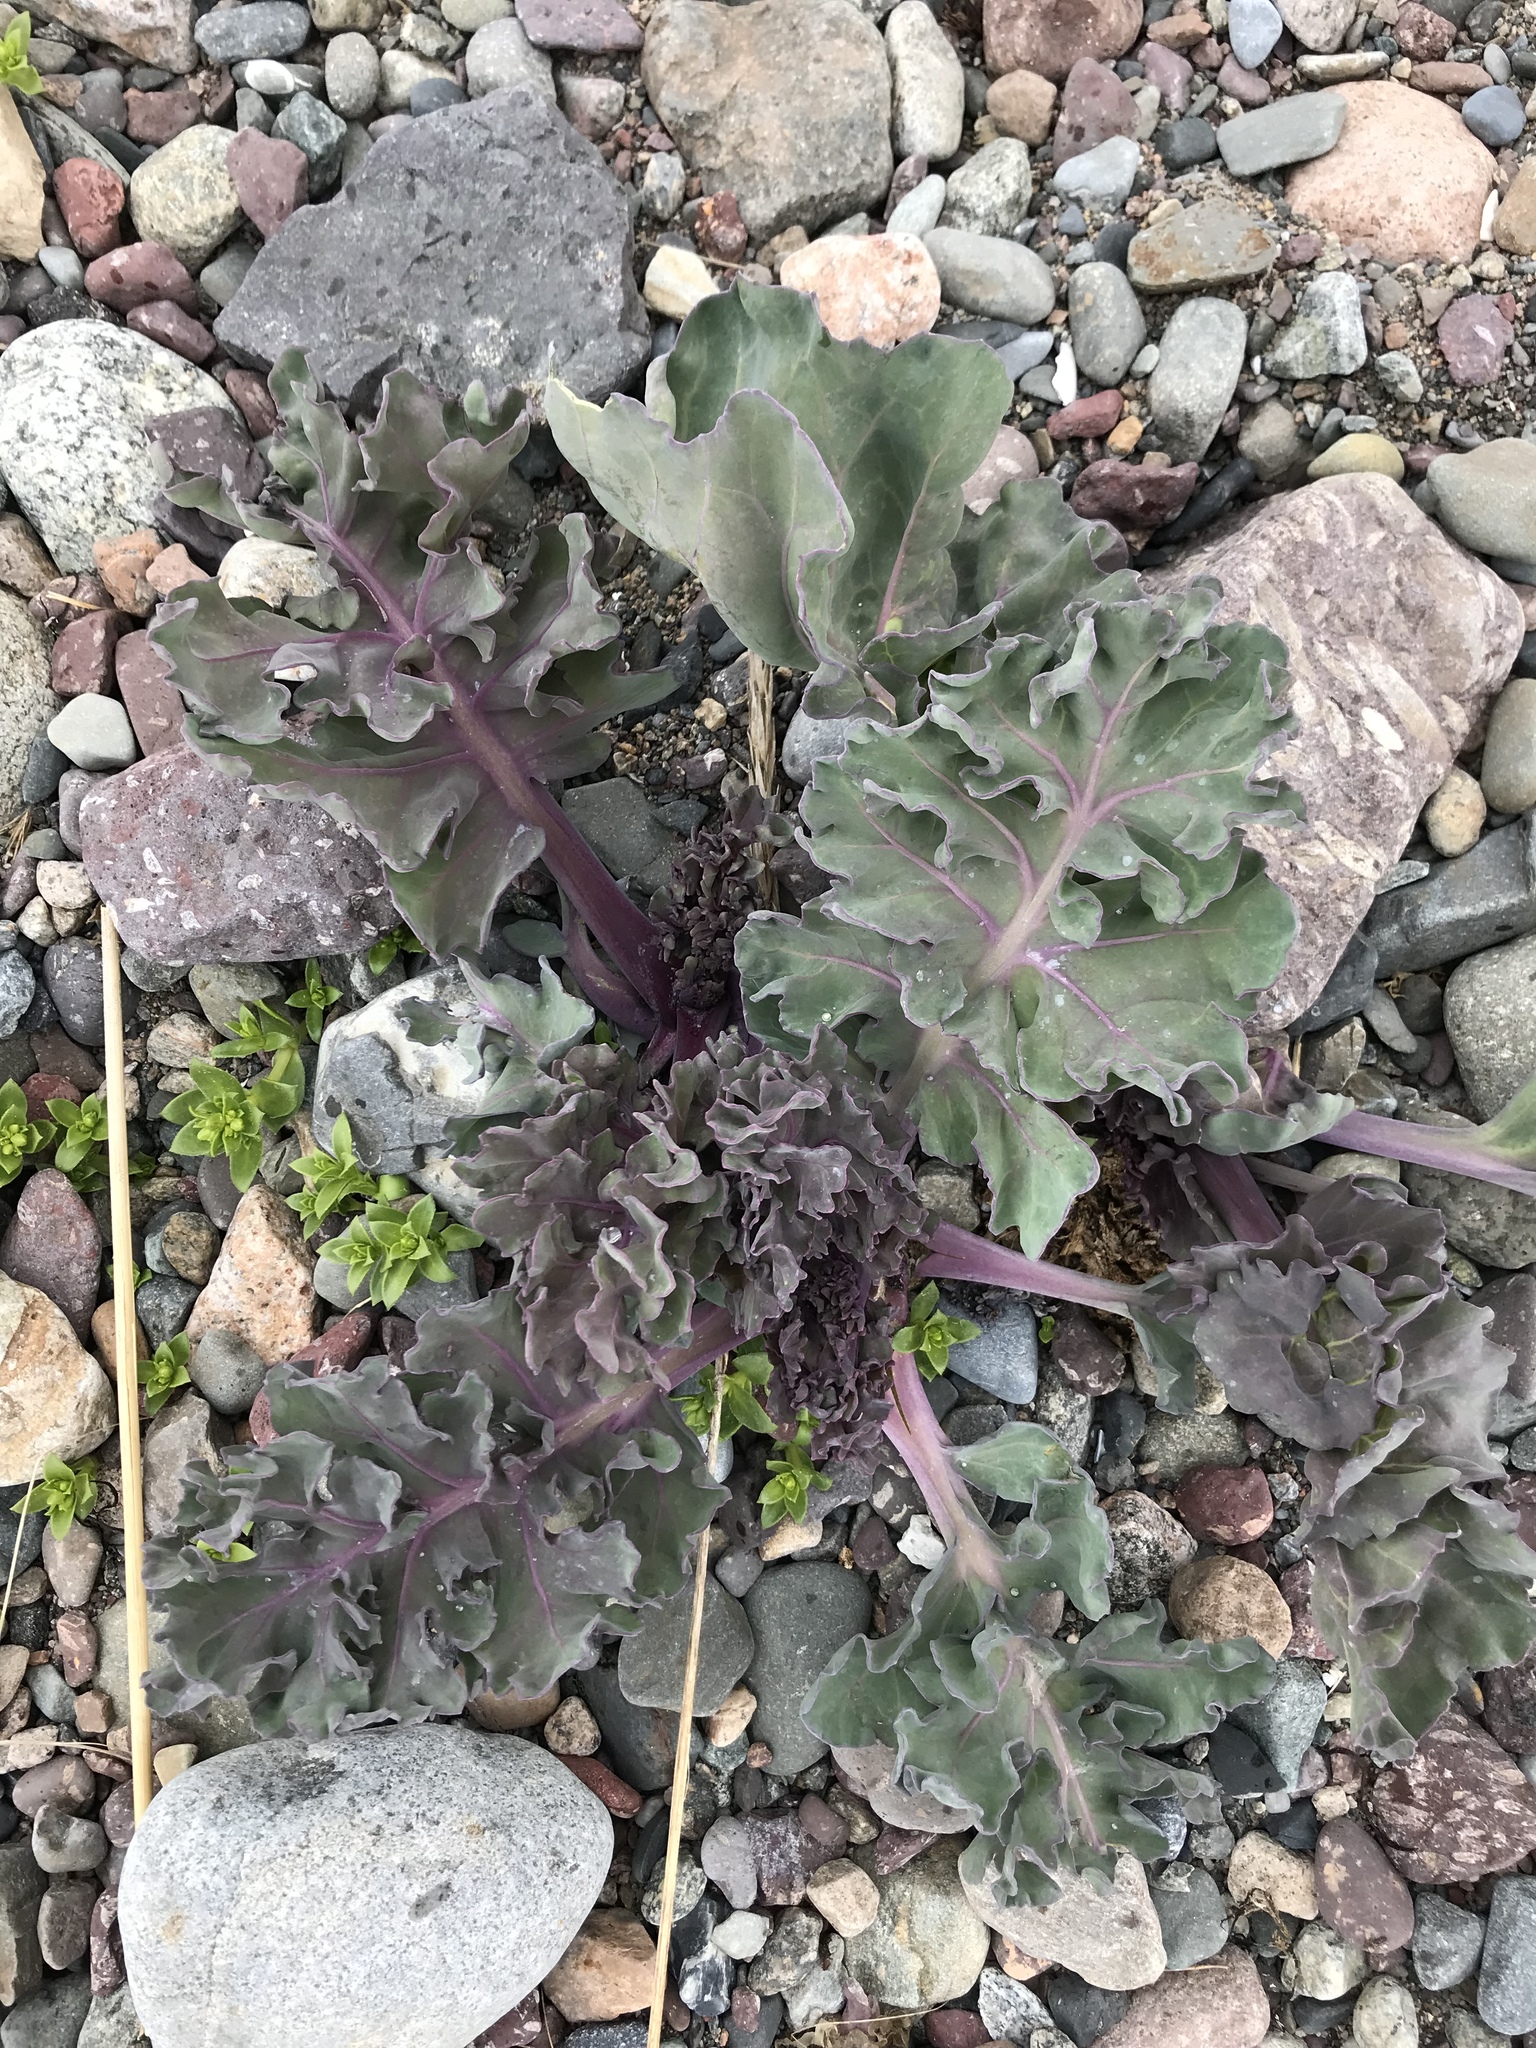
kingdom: Plantae
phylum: Tracheophyta
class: Magnoliopsida
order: Brassicales
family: Brassicaceae
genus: Crambe
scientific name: Crambe maritima
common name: Sea-kale
